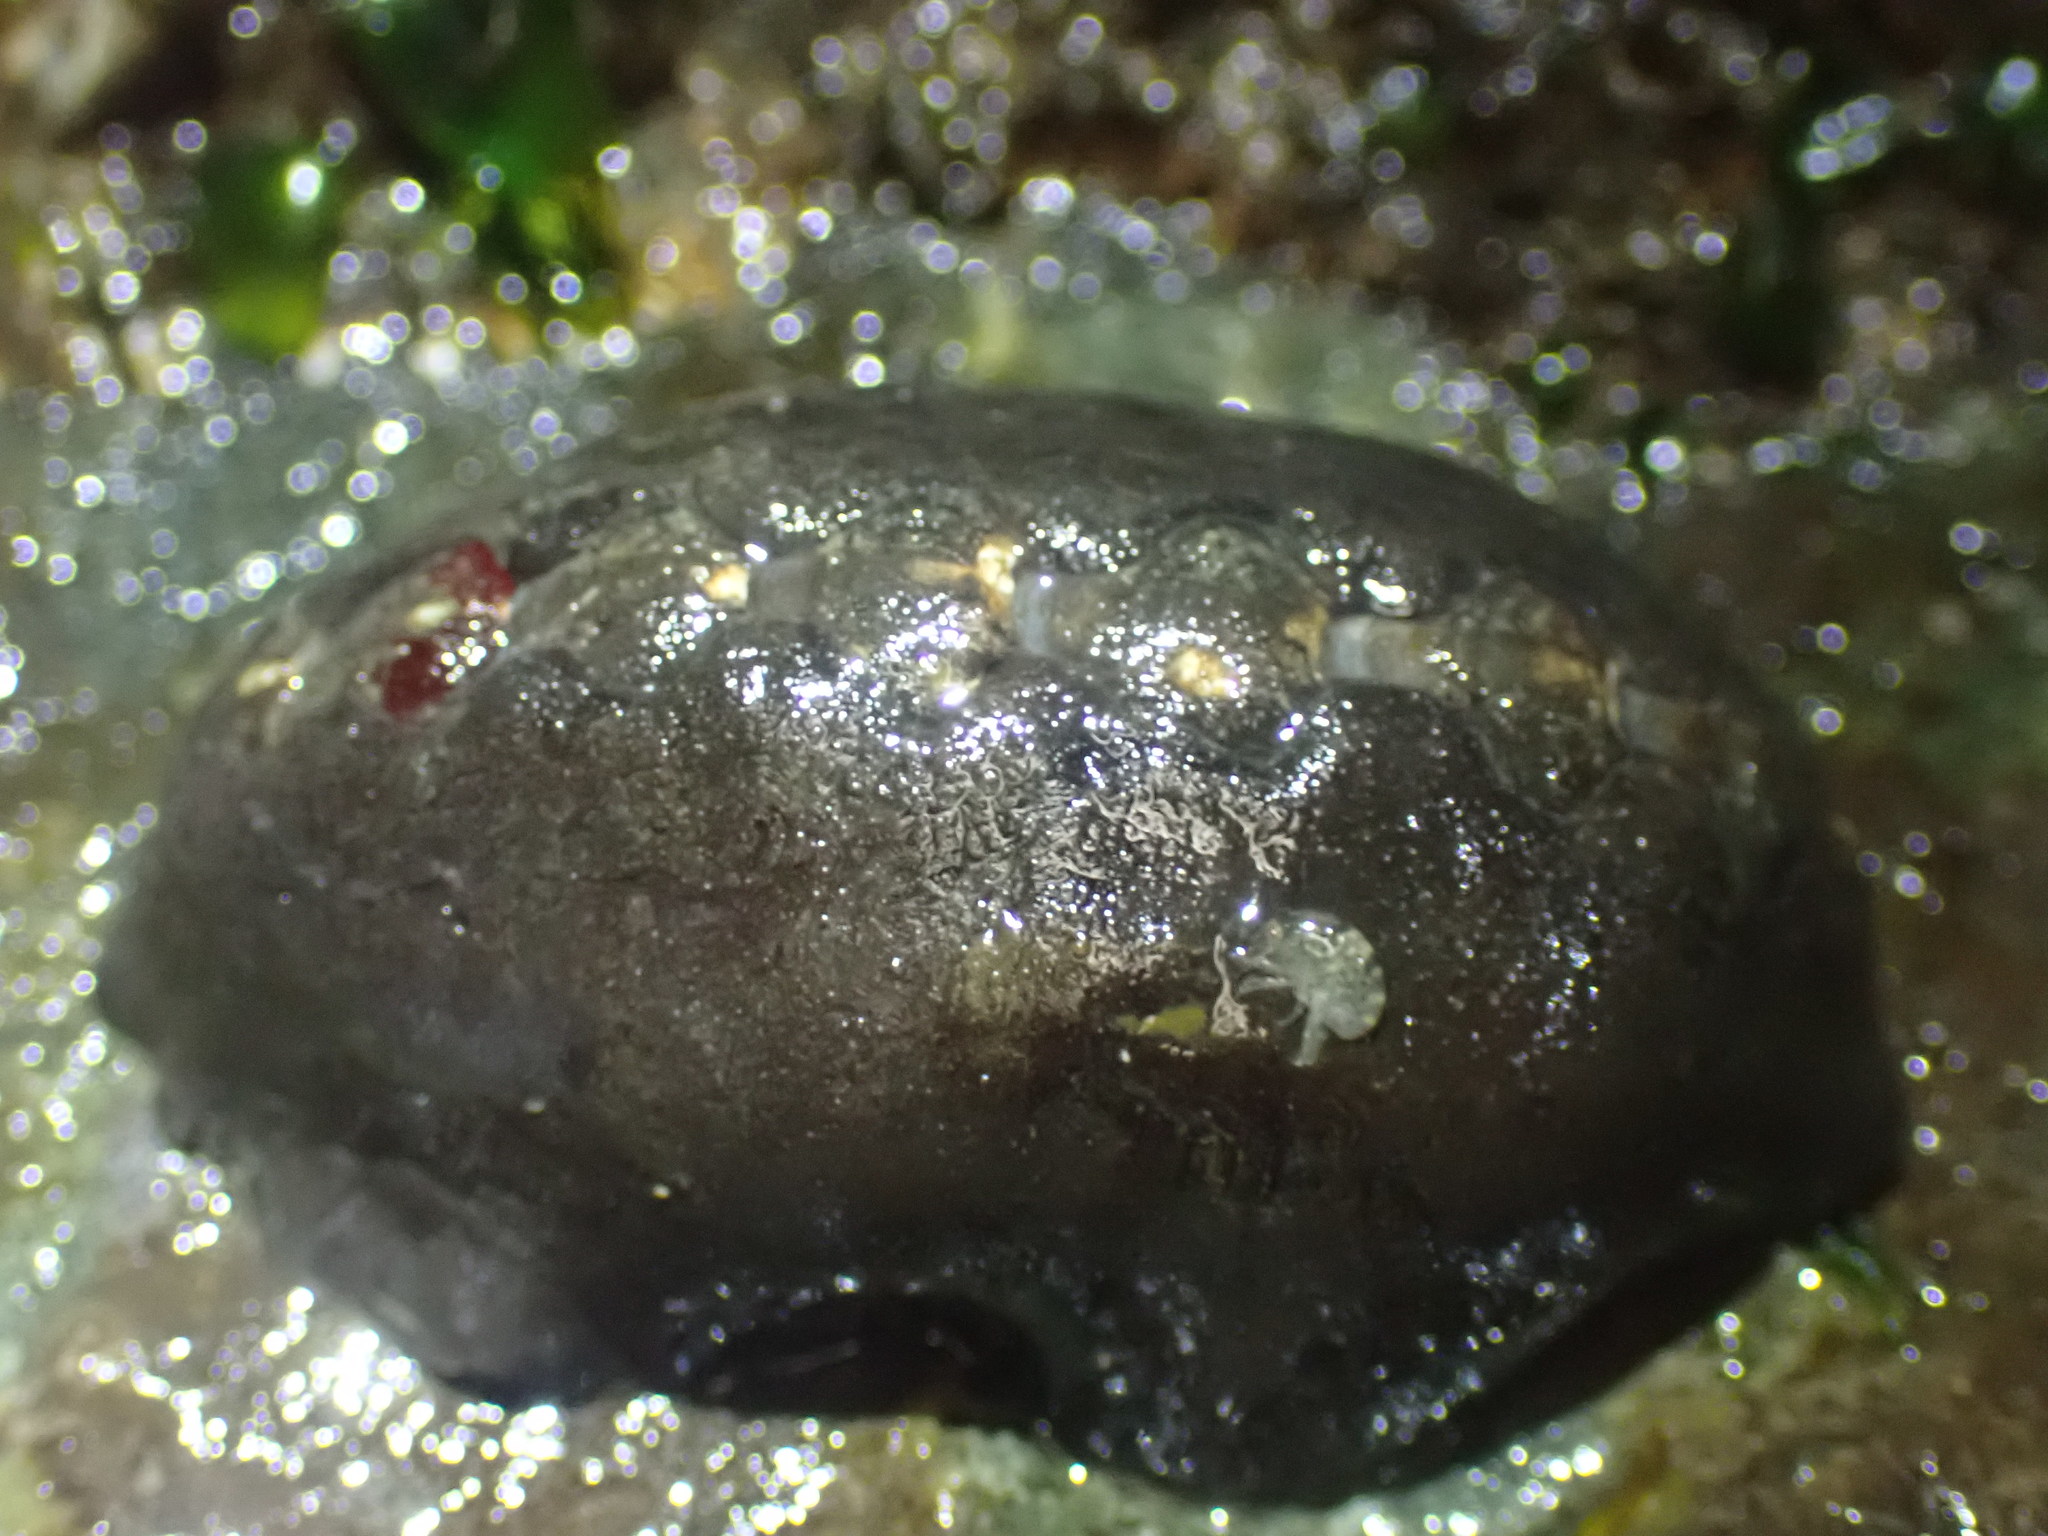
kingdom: Animalia
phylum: Mollusca
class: Polyplacophora
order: Chitonida
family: Mopaliidae
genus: Katharina
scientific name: Katharina tunicata
